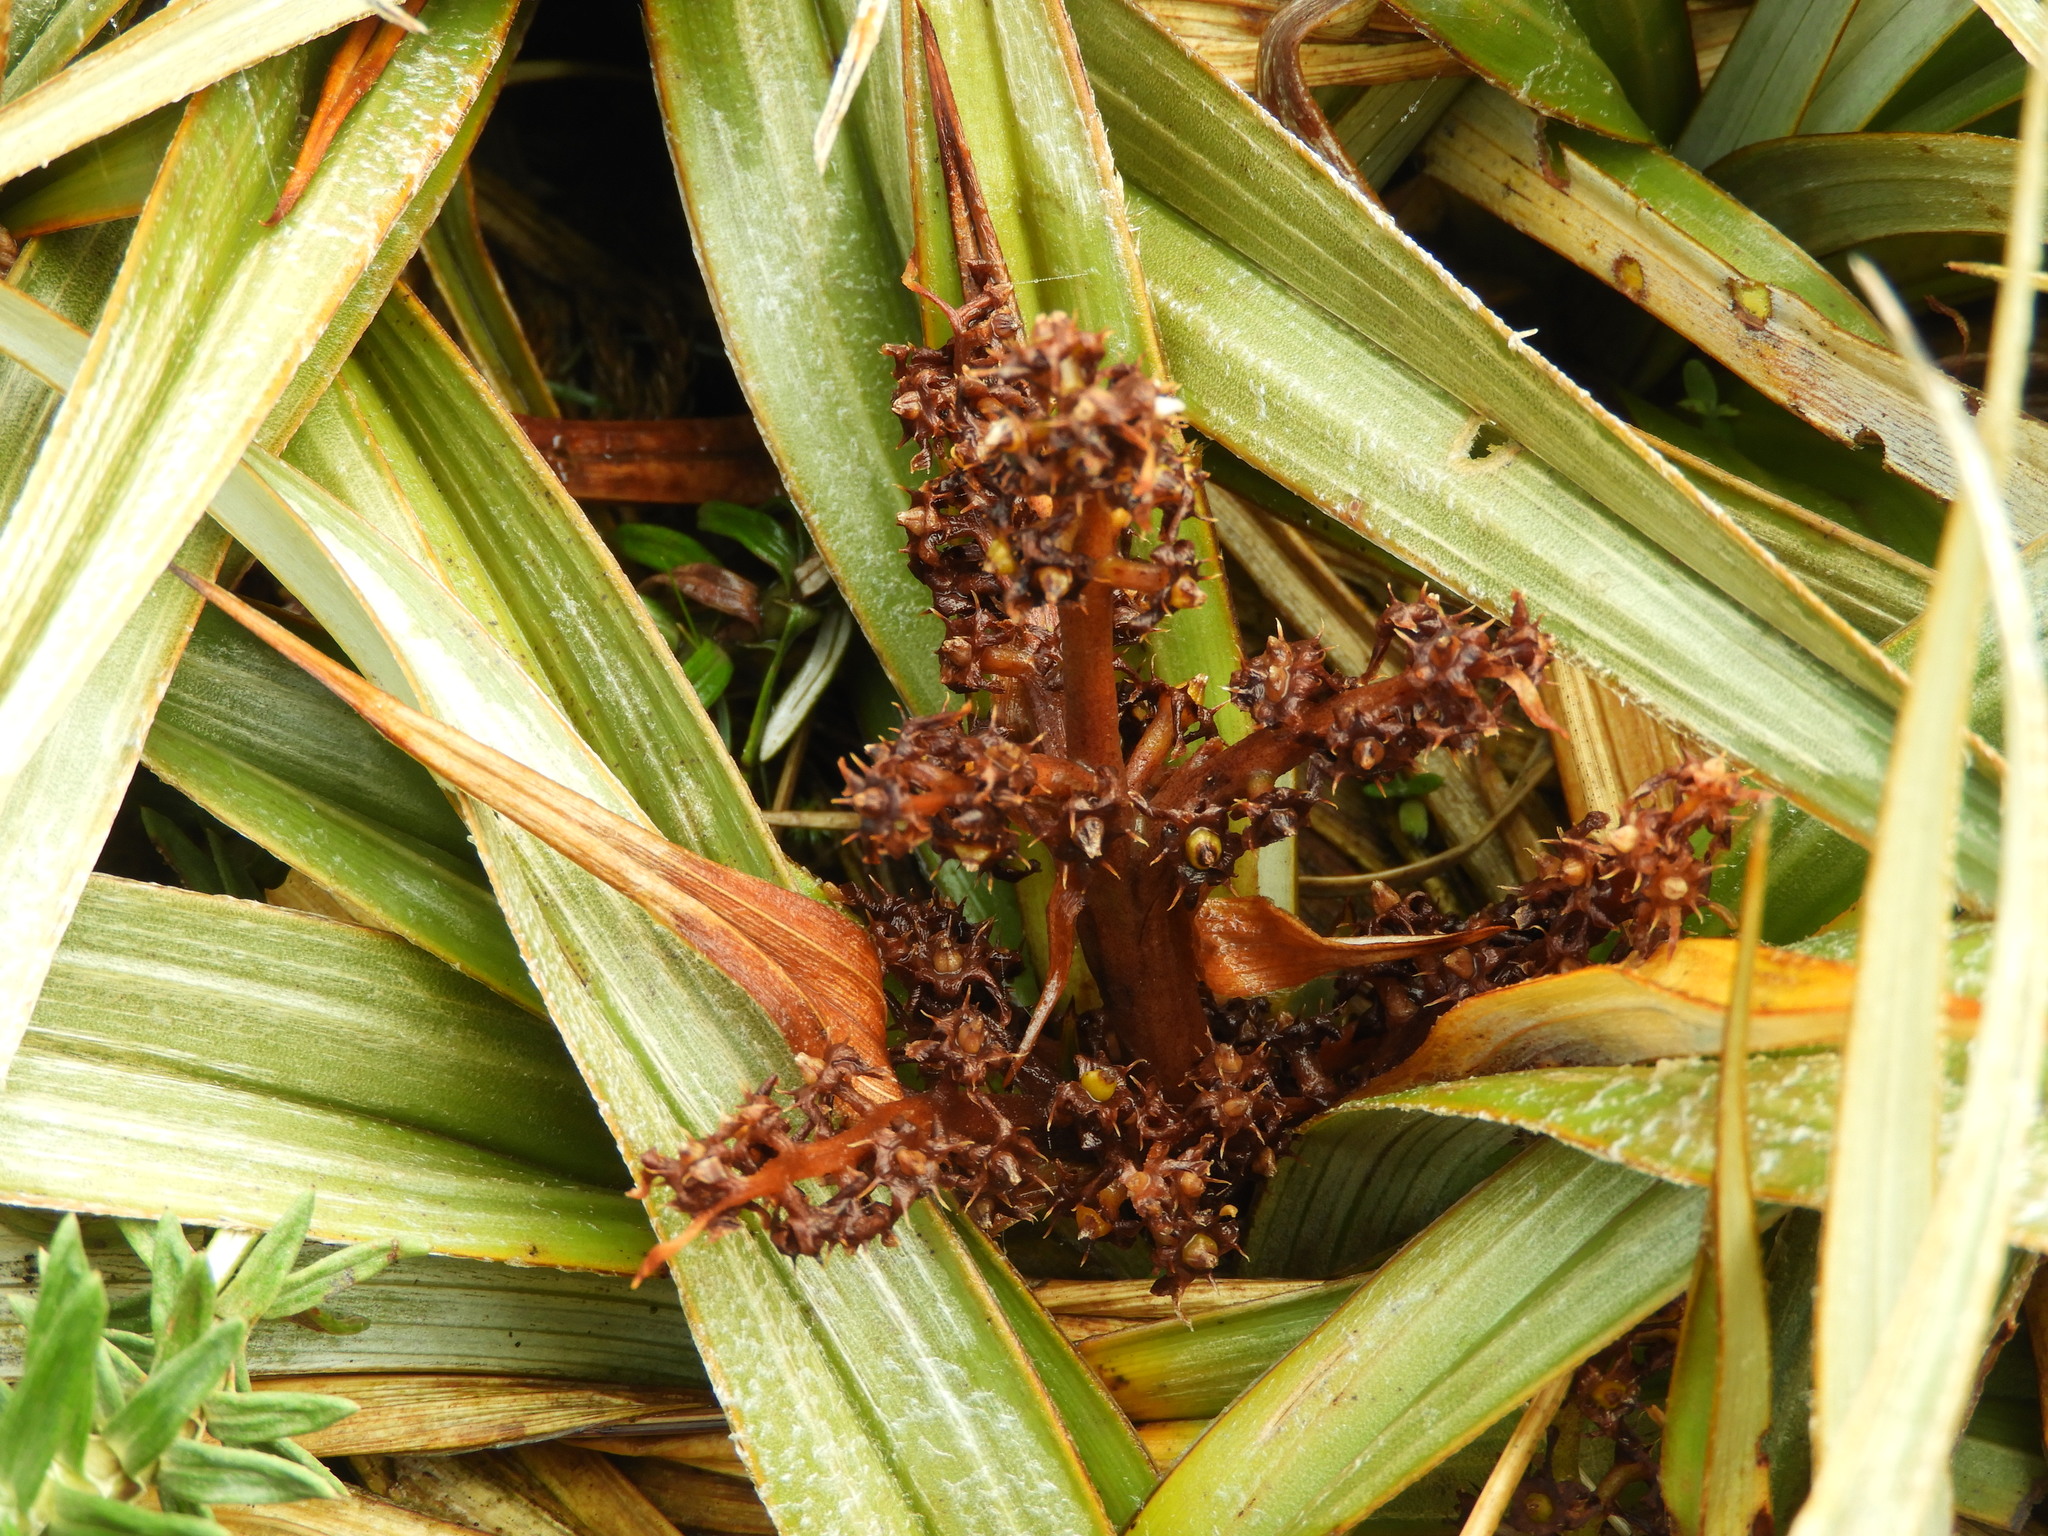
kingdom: Plantae
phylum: Tracheophyta
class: Liliopsida
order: Asparagales
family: Asteliaceae
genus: Astelia
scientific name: Astelia nivicola
